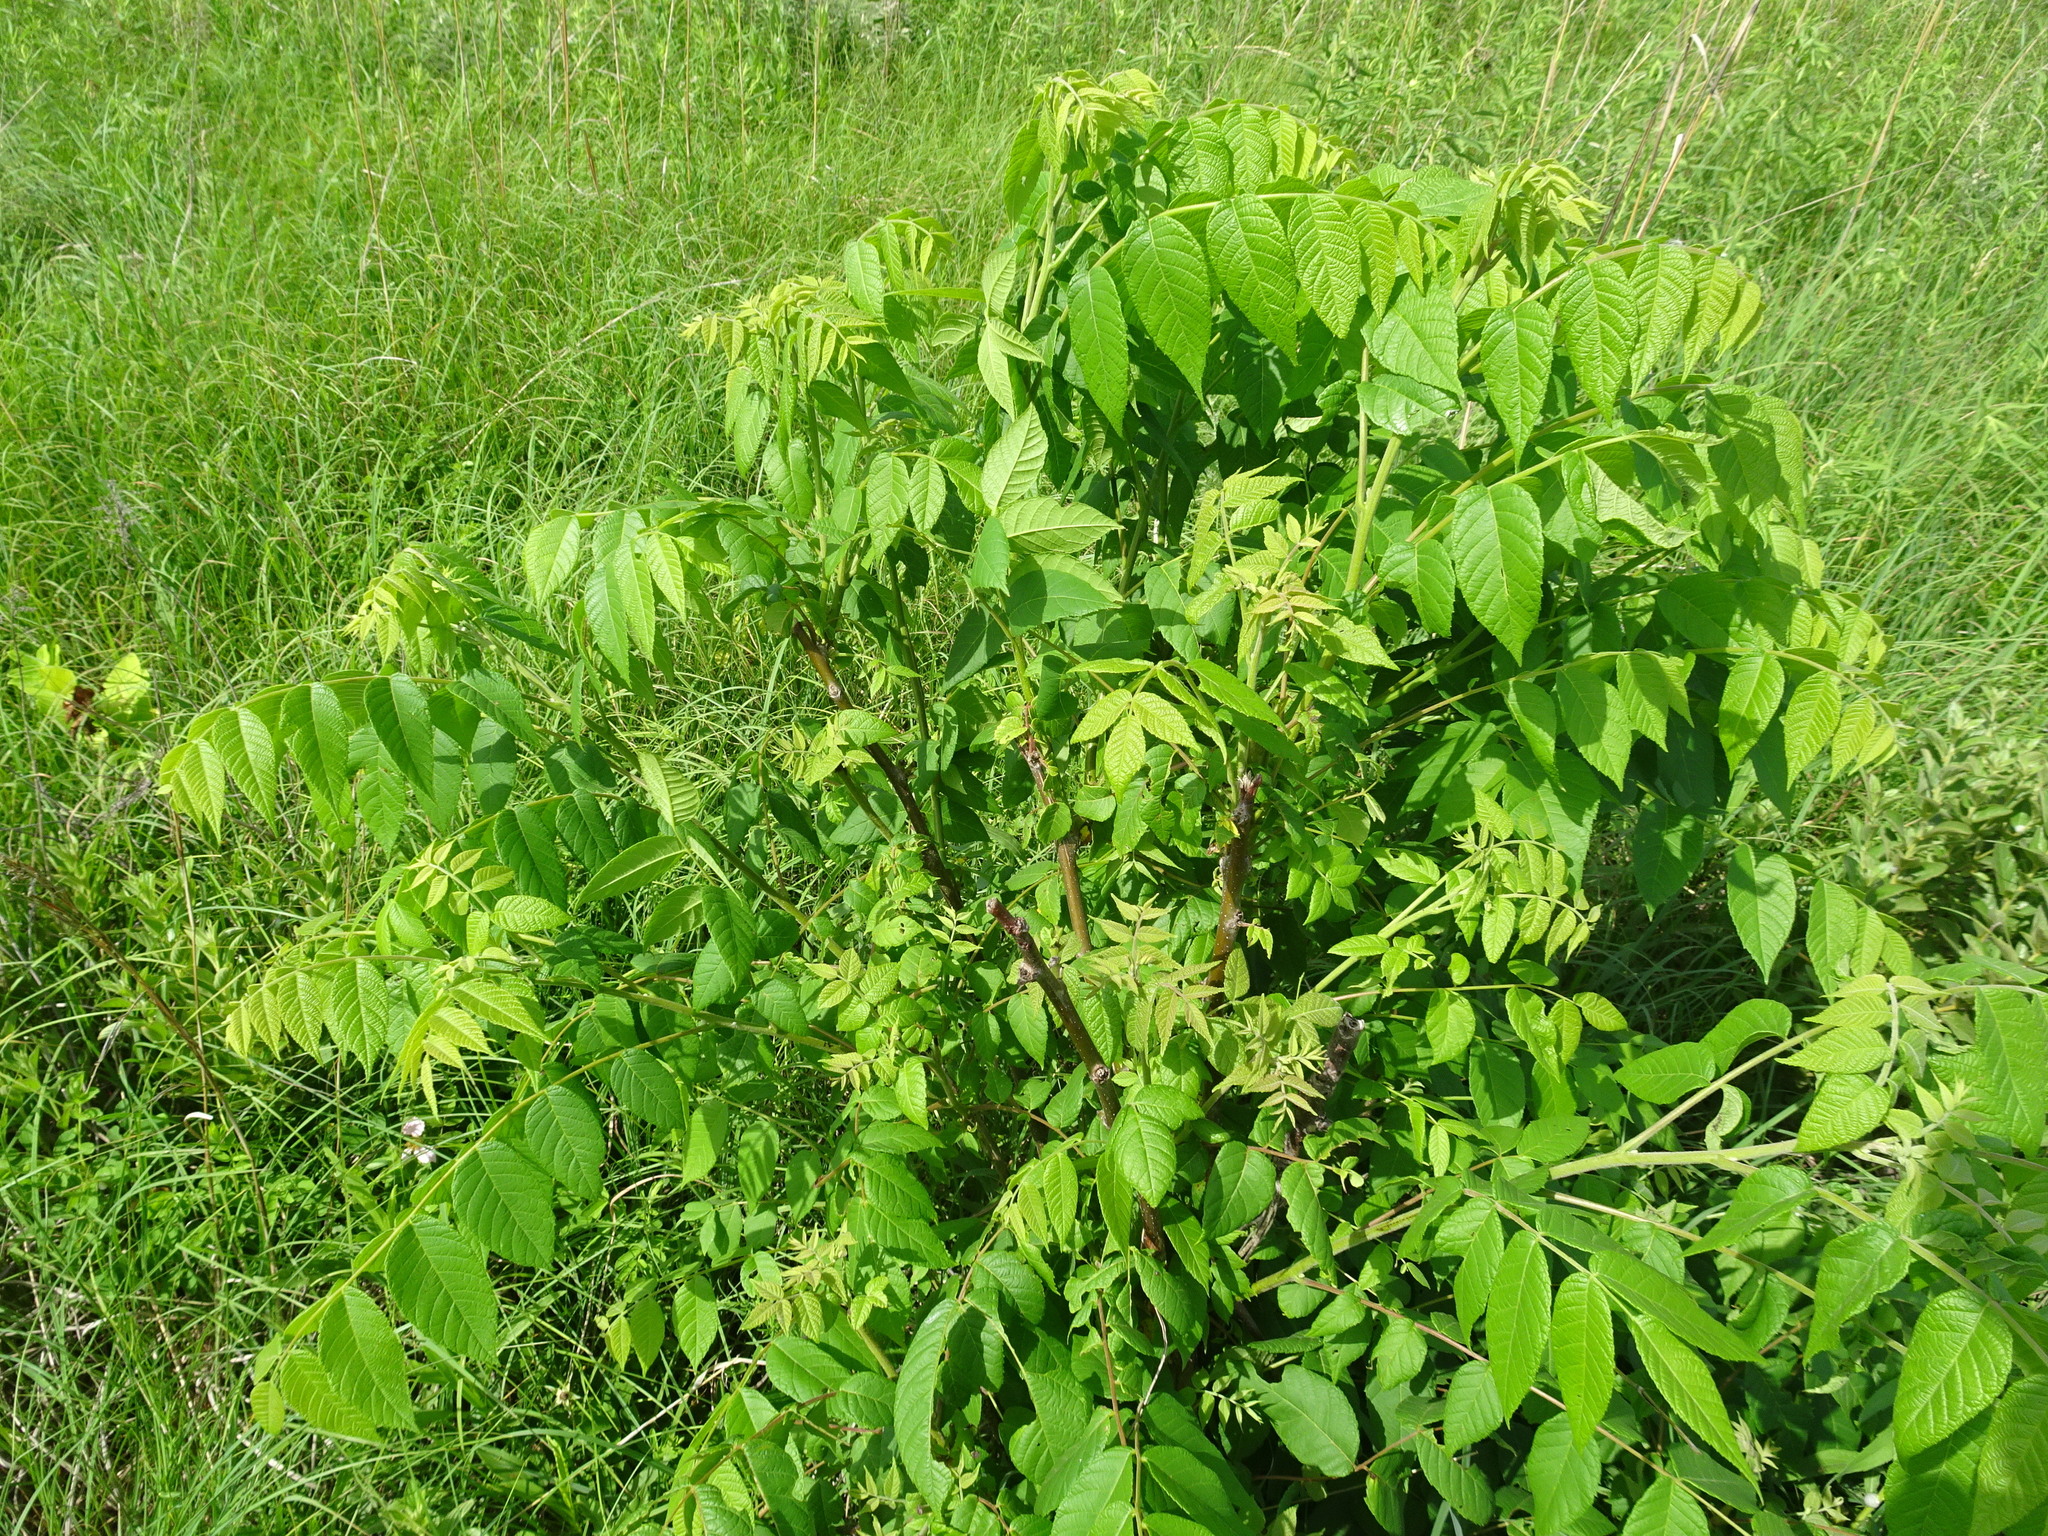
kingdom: Plantae
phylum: Tracheophyta
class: Magnoliopsida
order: Fagales
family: Juglandaceae
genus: Juglans
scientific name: Juglans nigra
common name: Black walnut
